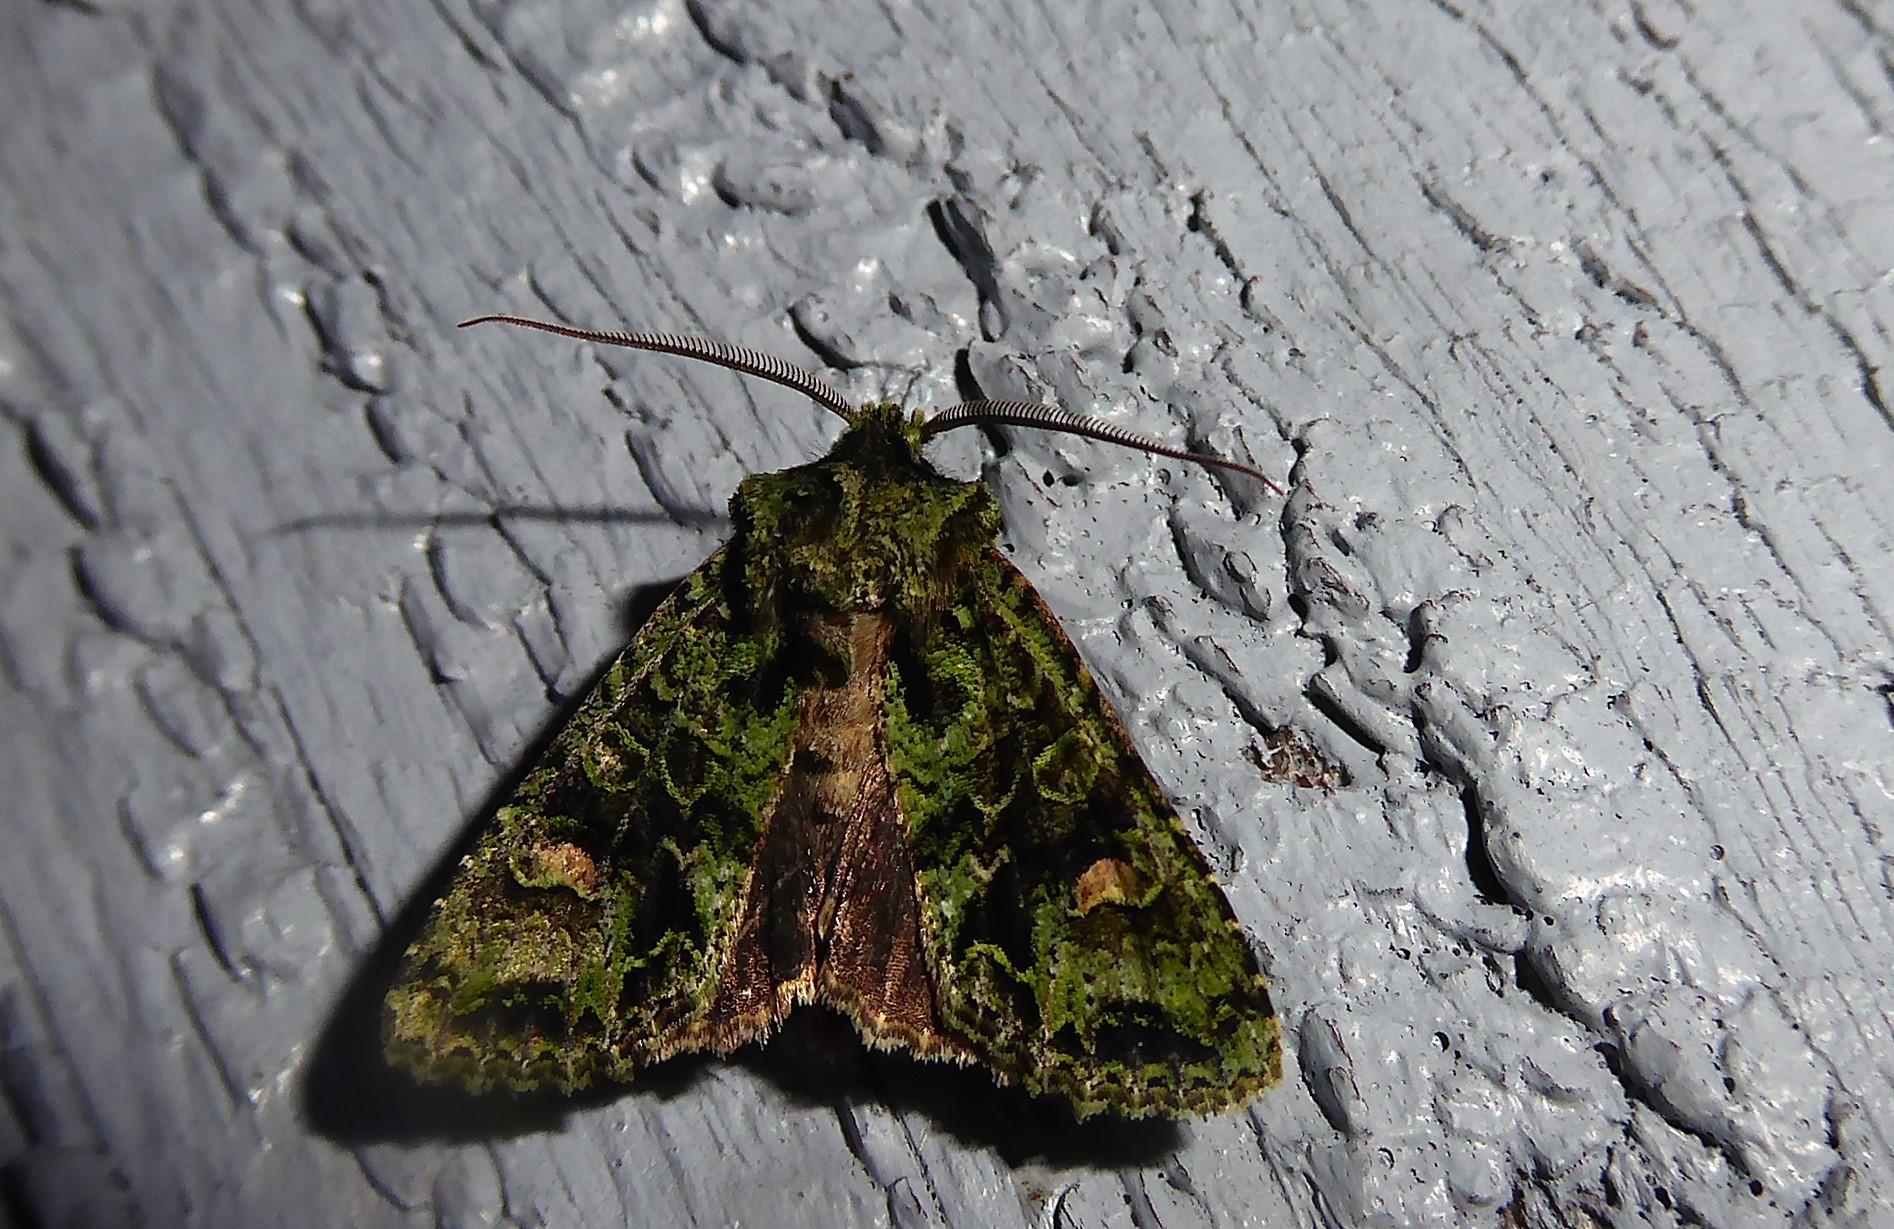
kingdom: Animalia
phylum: Arthropoda
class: Insecta
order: Lepidoptera
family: Noctuidae
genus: Ichneutica
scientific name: Ichneutica
